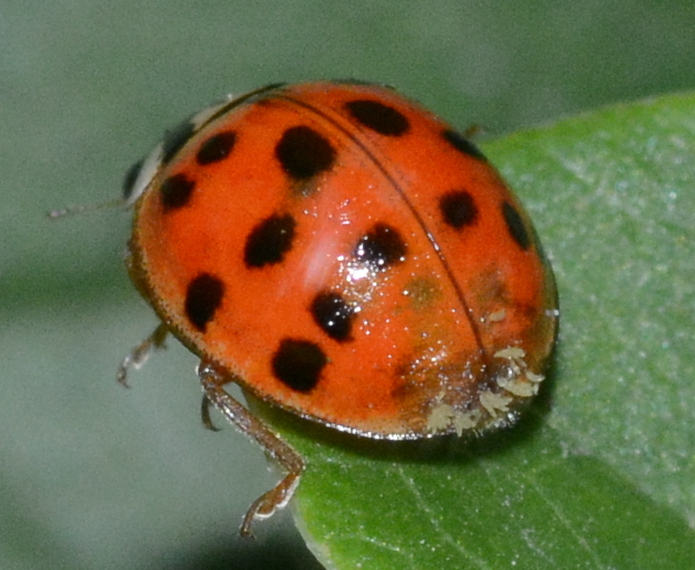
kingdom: Fungi
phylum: Ascomycota
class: Laboulbeniomycetes
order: Laboulbeniales
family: Laboulbeniaceae
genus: Hesperomyces
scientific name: Hesperomyces harmoniae
